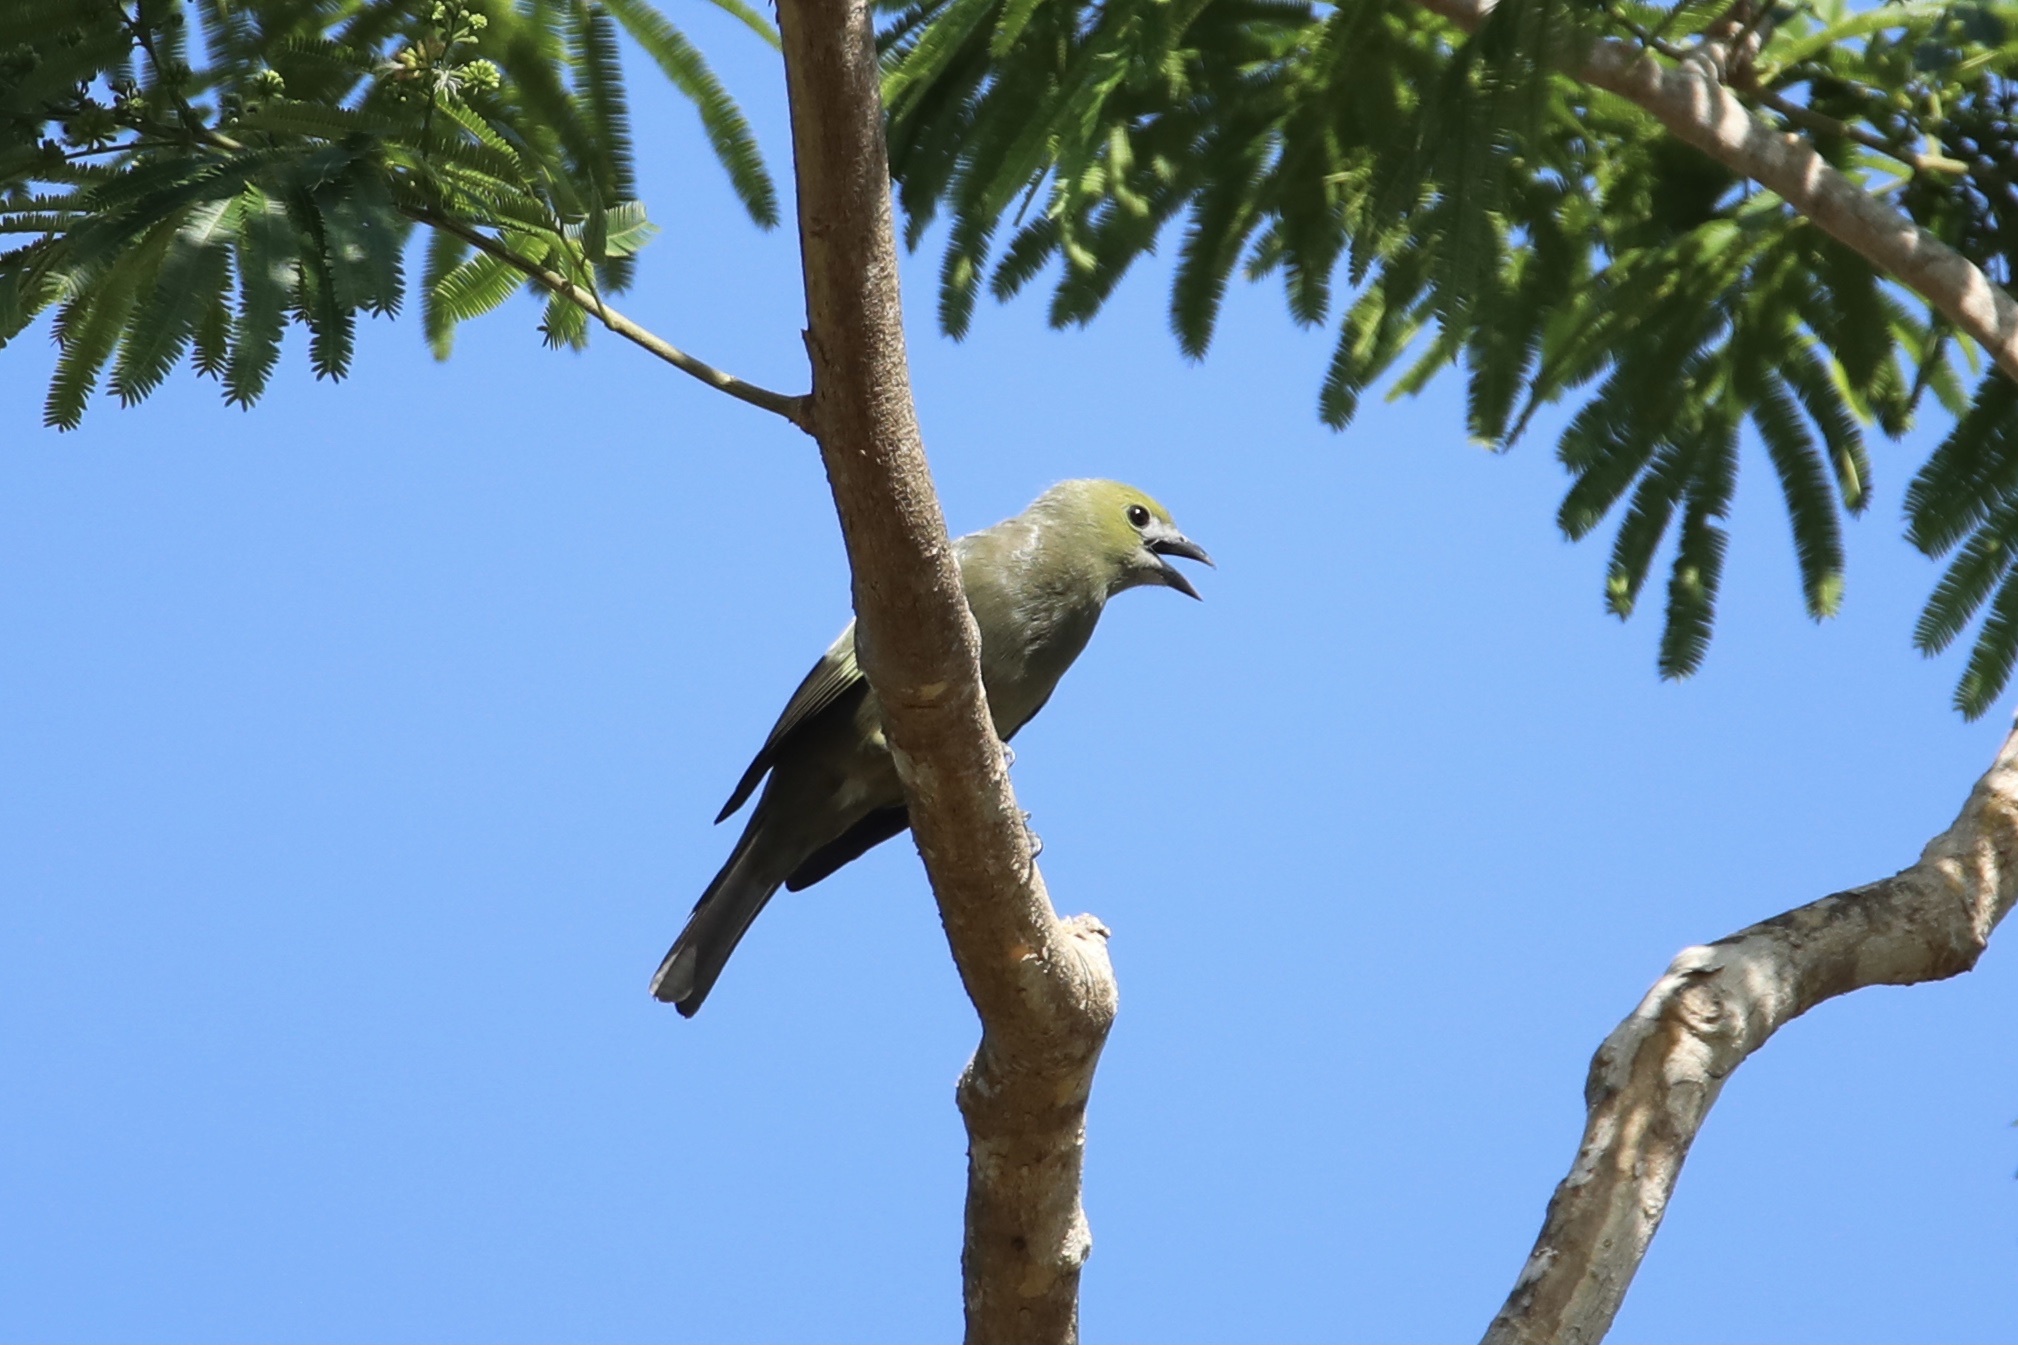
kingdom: Animalia
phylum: Chordata
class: Aves
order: Passeriformes
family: Thraupidae
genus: Thraupis
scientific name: Thraupis palmarum
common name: Palm tanager
